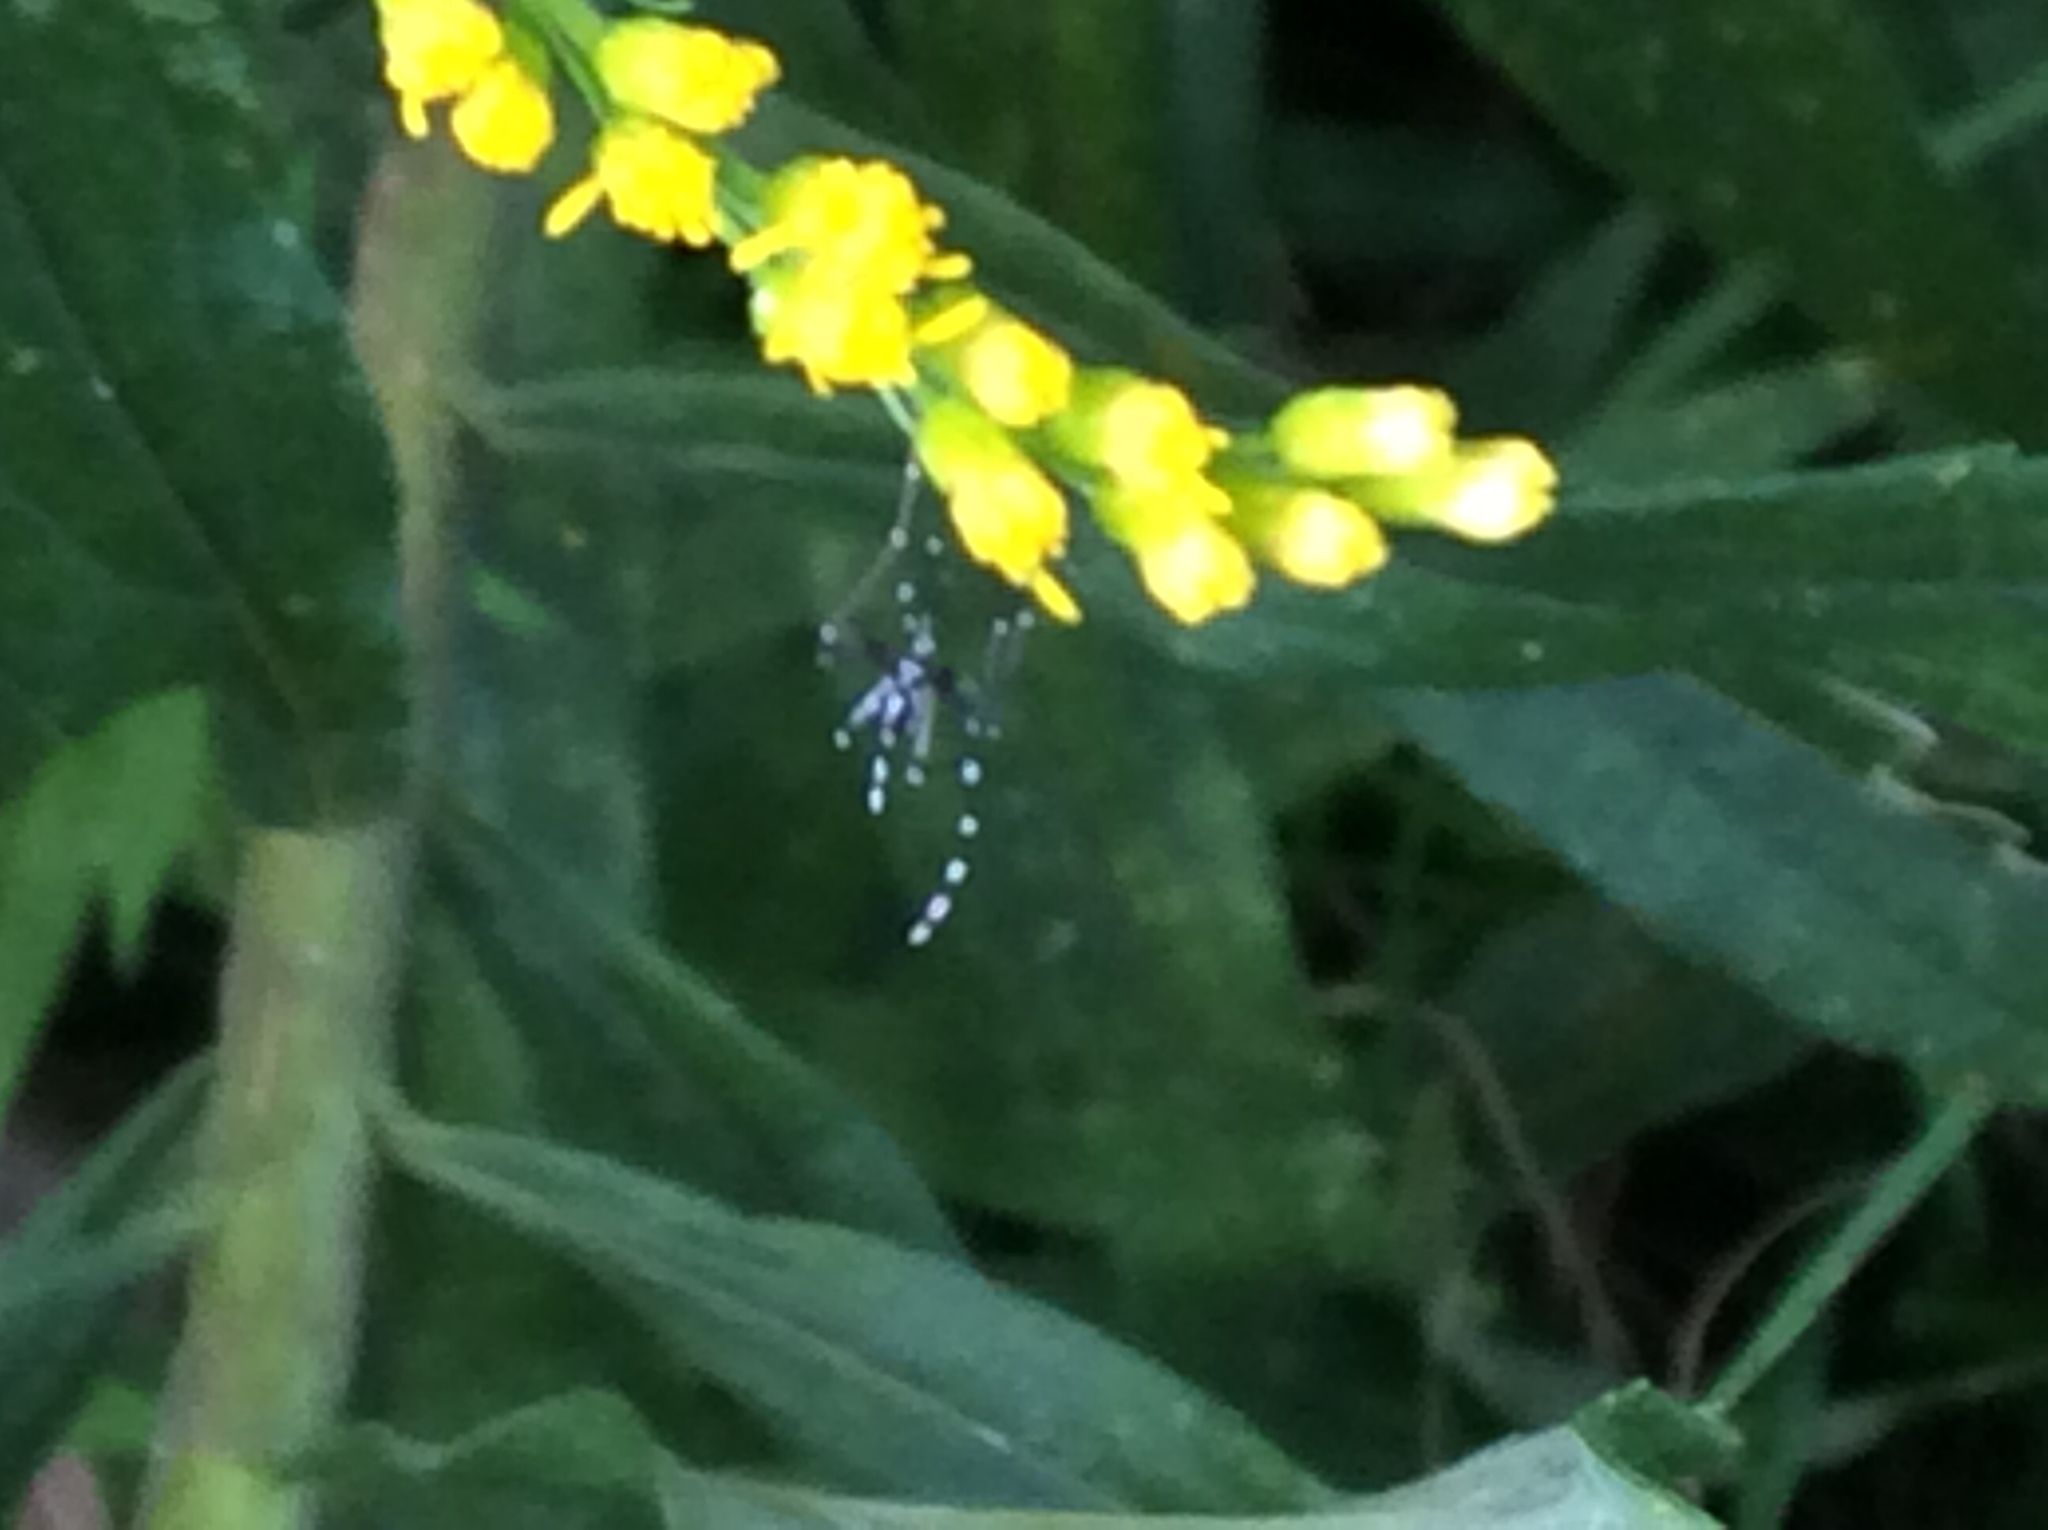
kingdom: Animalia
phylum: Arthropoda
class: Insecta
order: Diptera
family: Culicidae
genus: Aedes
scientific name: Aedes albopictus
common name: Tiger mosquito
